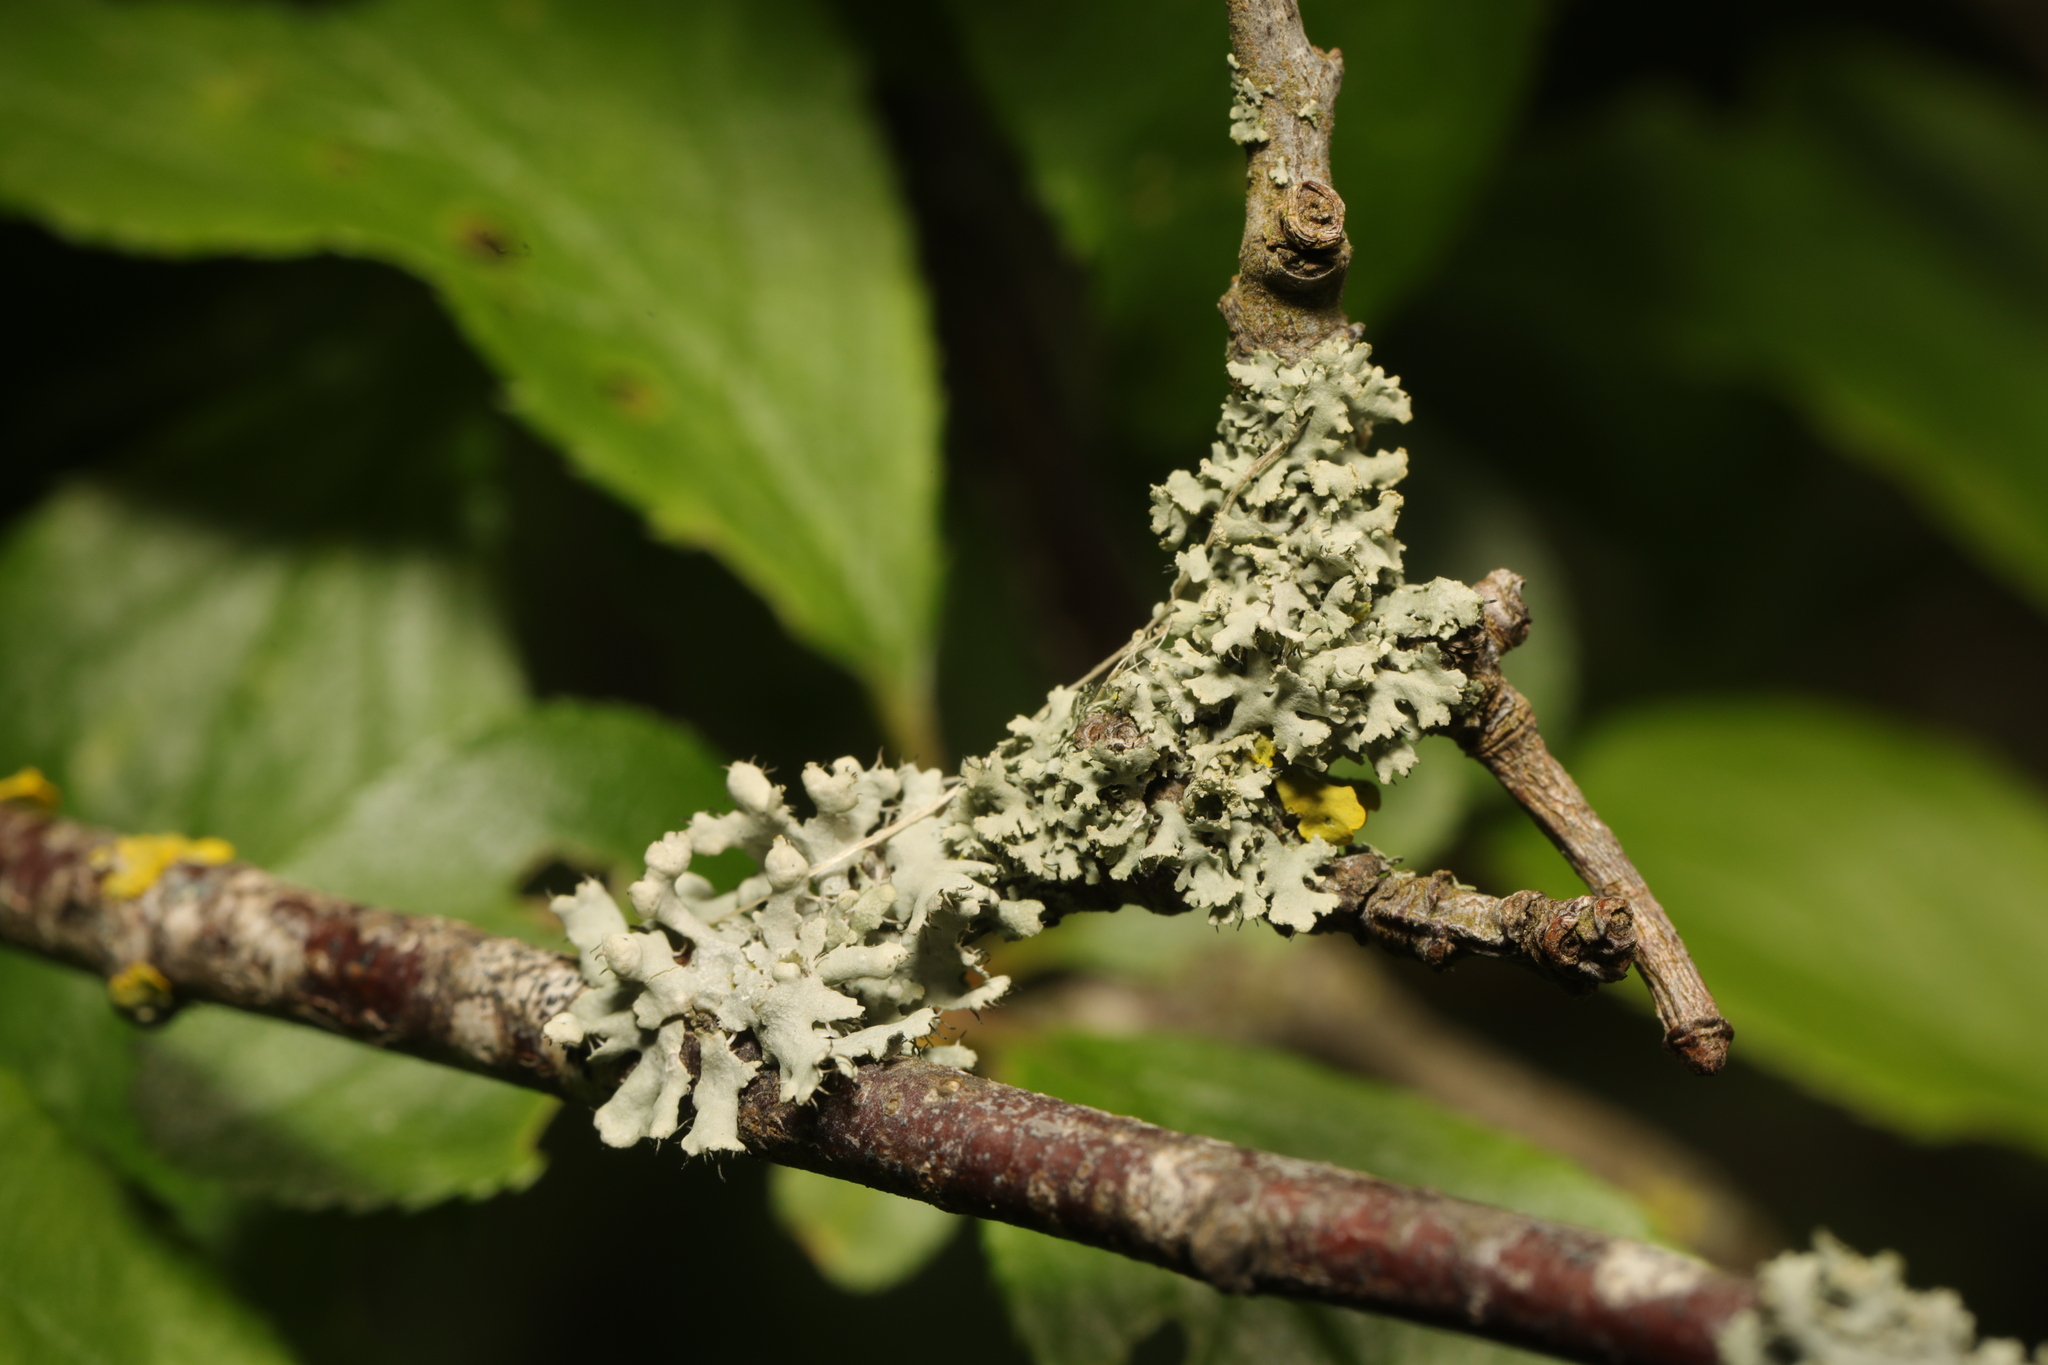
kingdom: Fungi
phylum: Ascomycota
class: Lecanoromycetes
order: Caliciales
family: Physciaceae
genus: Physcia
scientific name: Physcia adscendens
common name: Hooded rosette lichen
